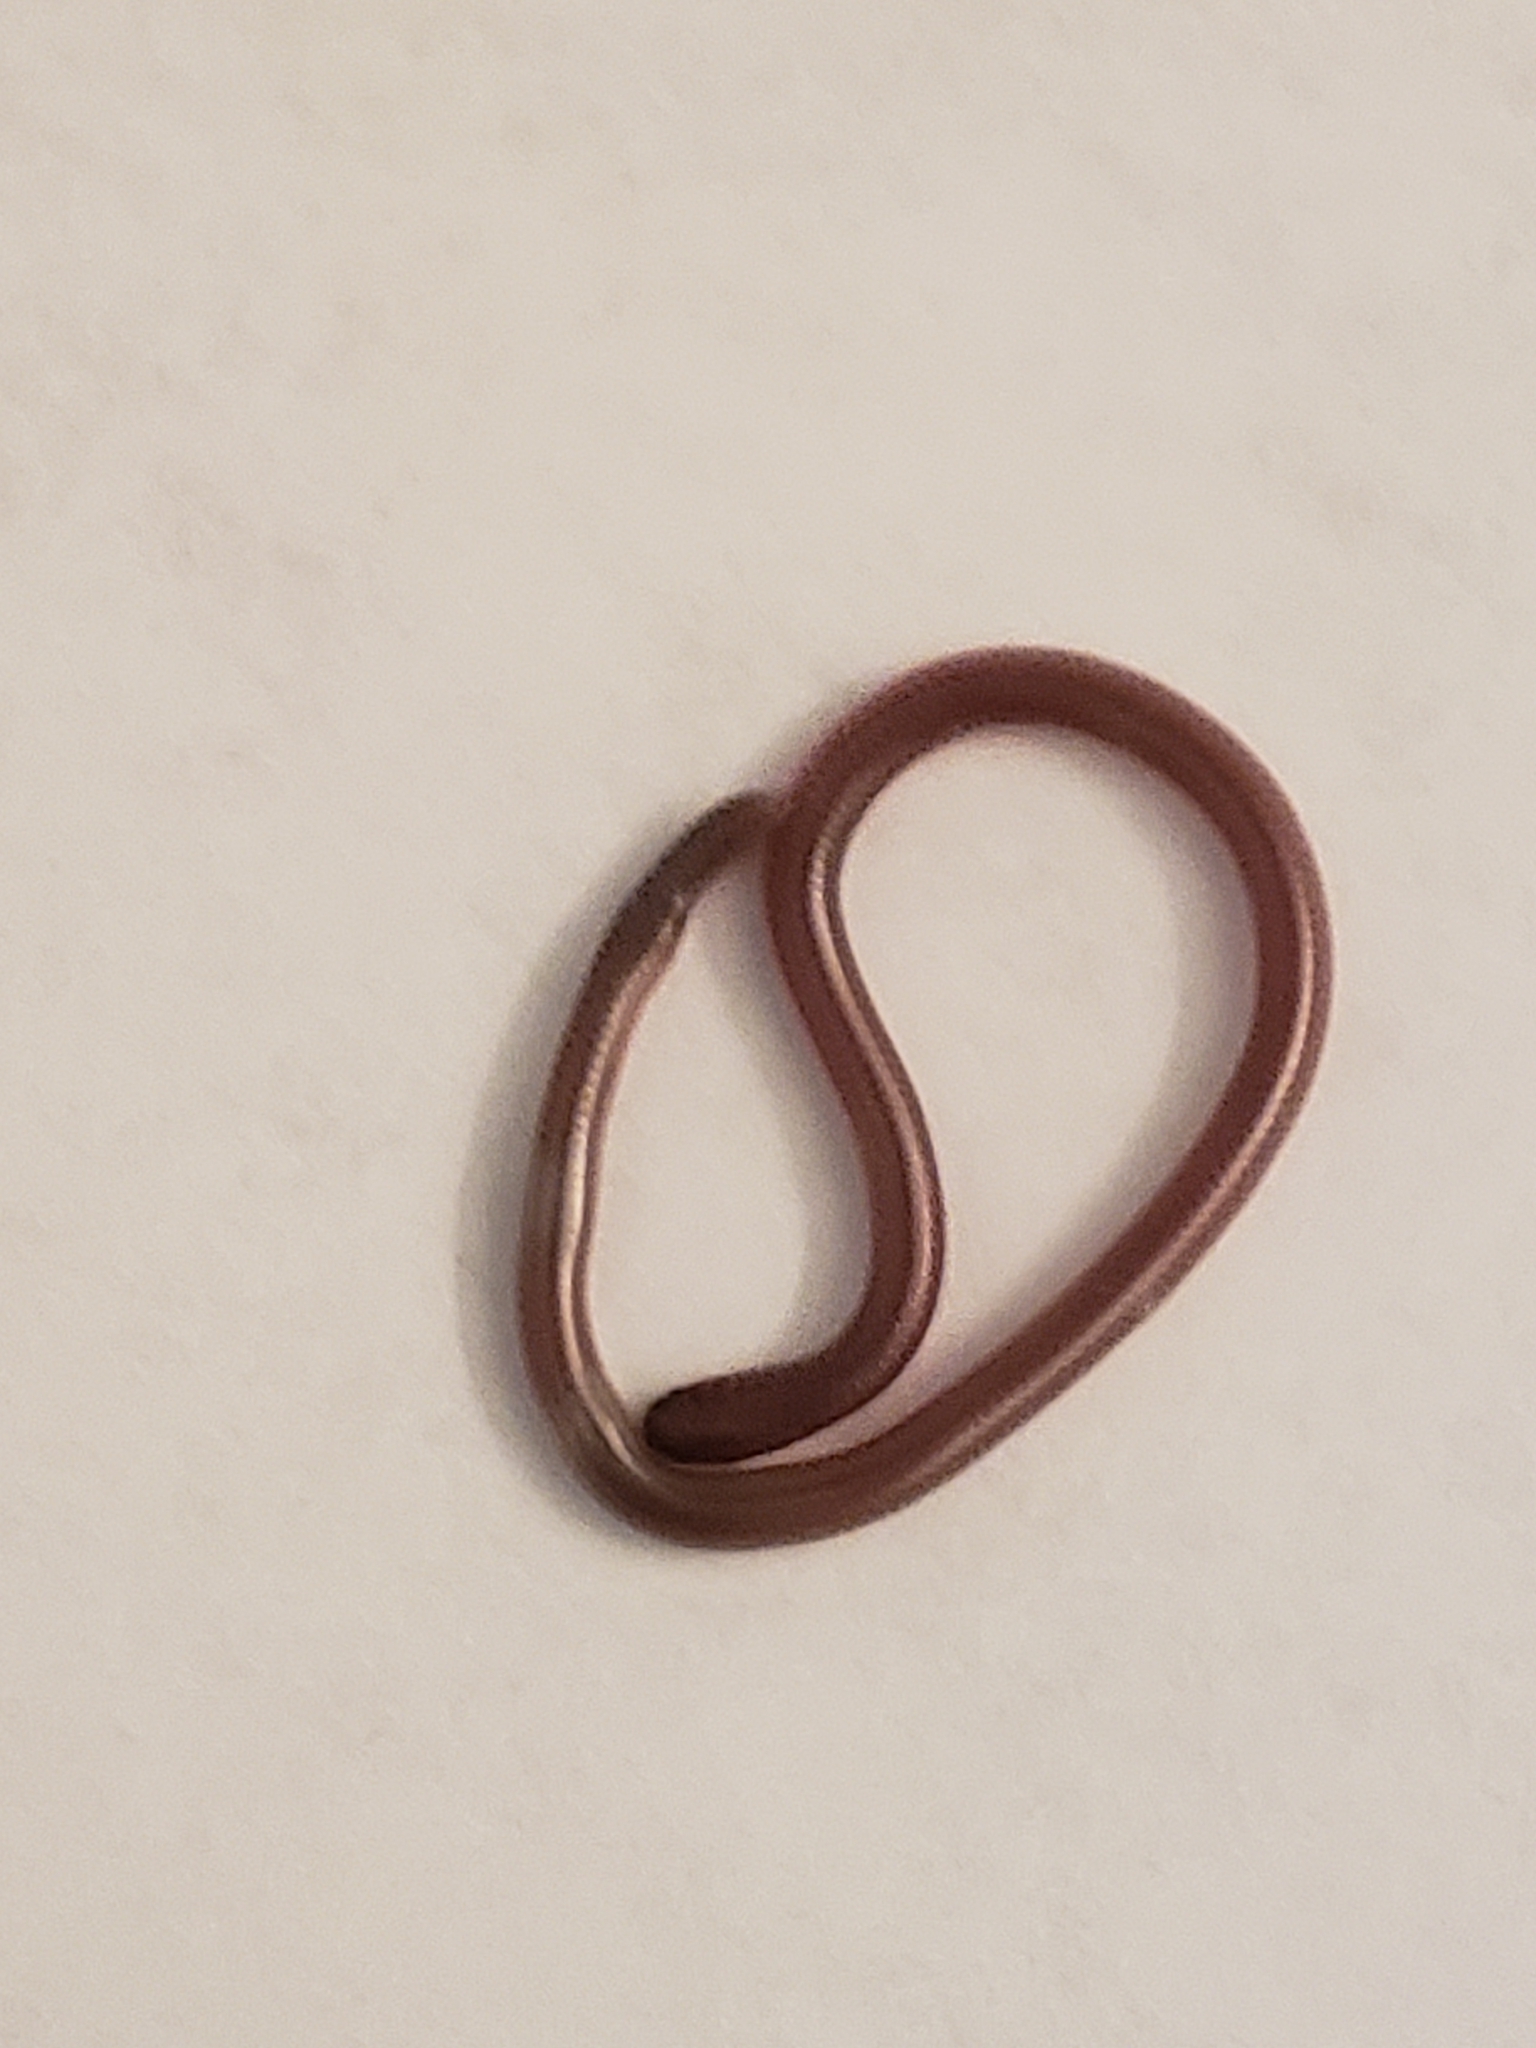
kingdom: Animalia
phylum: Chordata
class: Squamata
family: Leptotyphlopidae
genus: Rena
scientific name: Rena dulcis
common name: Texas blind snake
